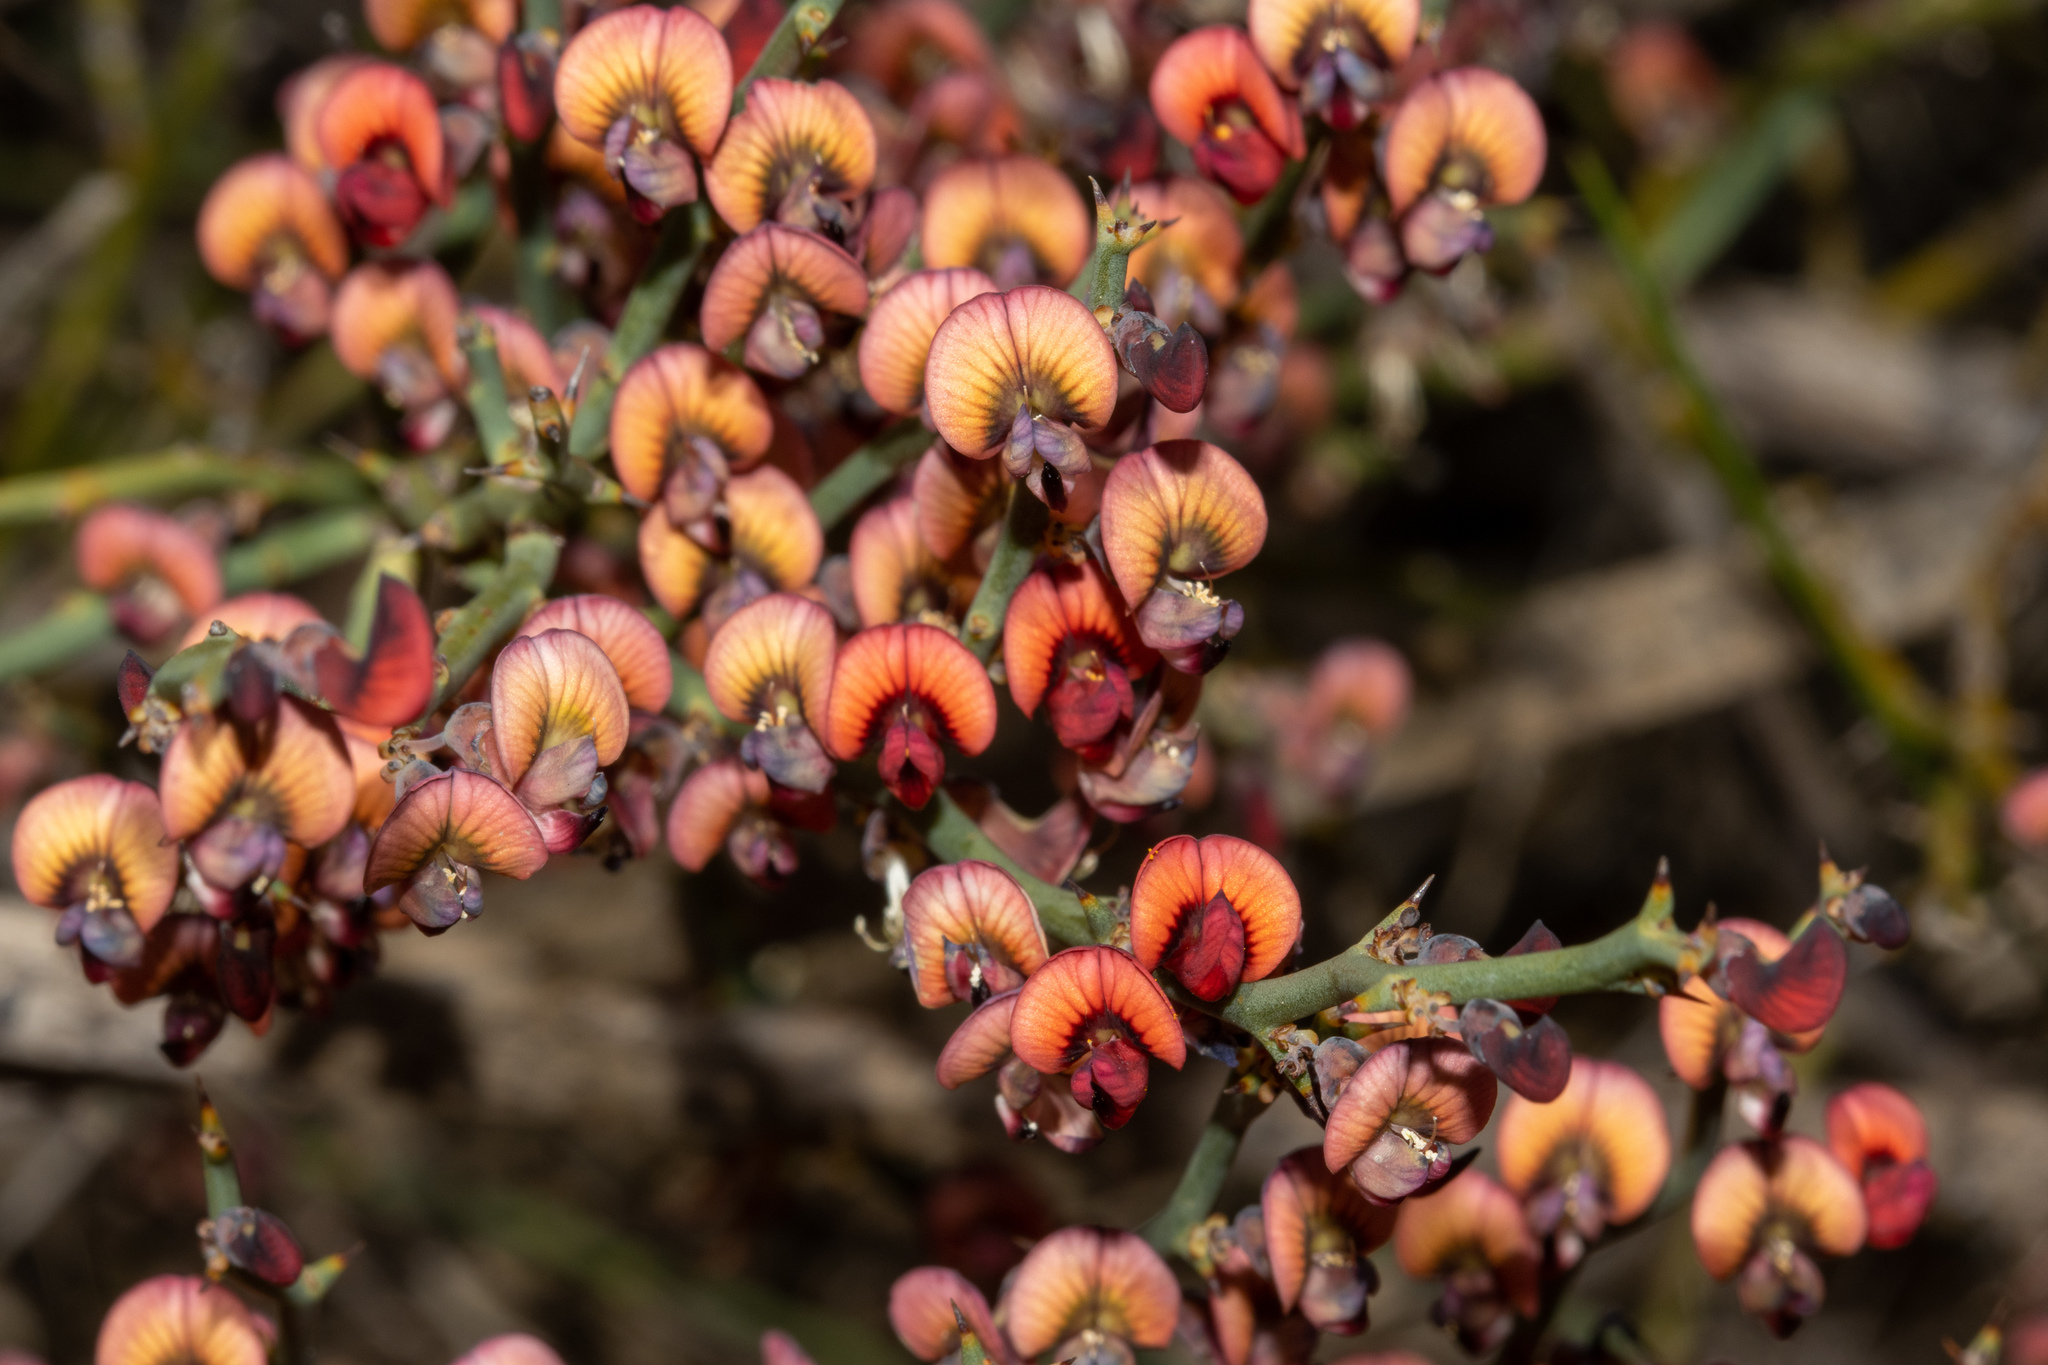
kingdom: Plantae
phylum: Tracheophyta
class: Magnoliopsida
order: Fabales
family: Fabaceae
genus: Daviesia
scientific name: Daviesia brevifolia
